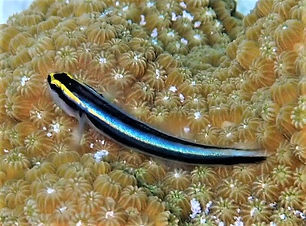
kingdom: Animalia
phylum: Chordata
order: Perciformes
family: Gobiidae
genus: Elacatinus
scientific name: Elacatinus evelynae
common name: Sharknose goby
